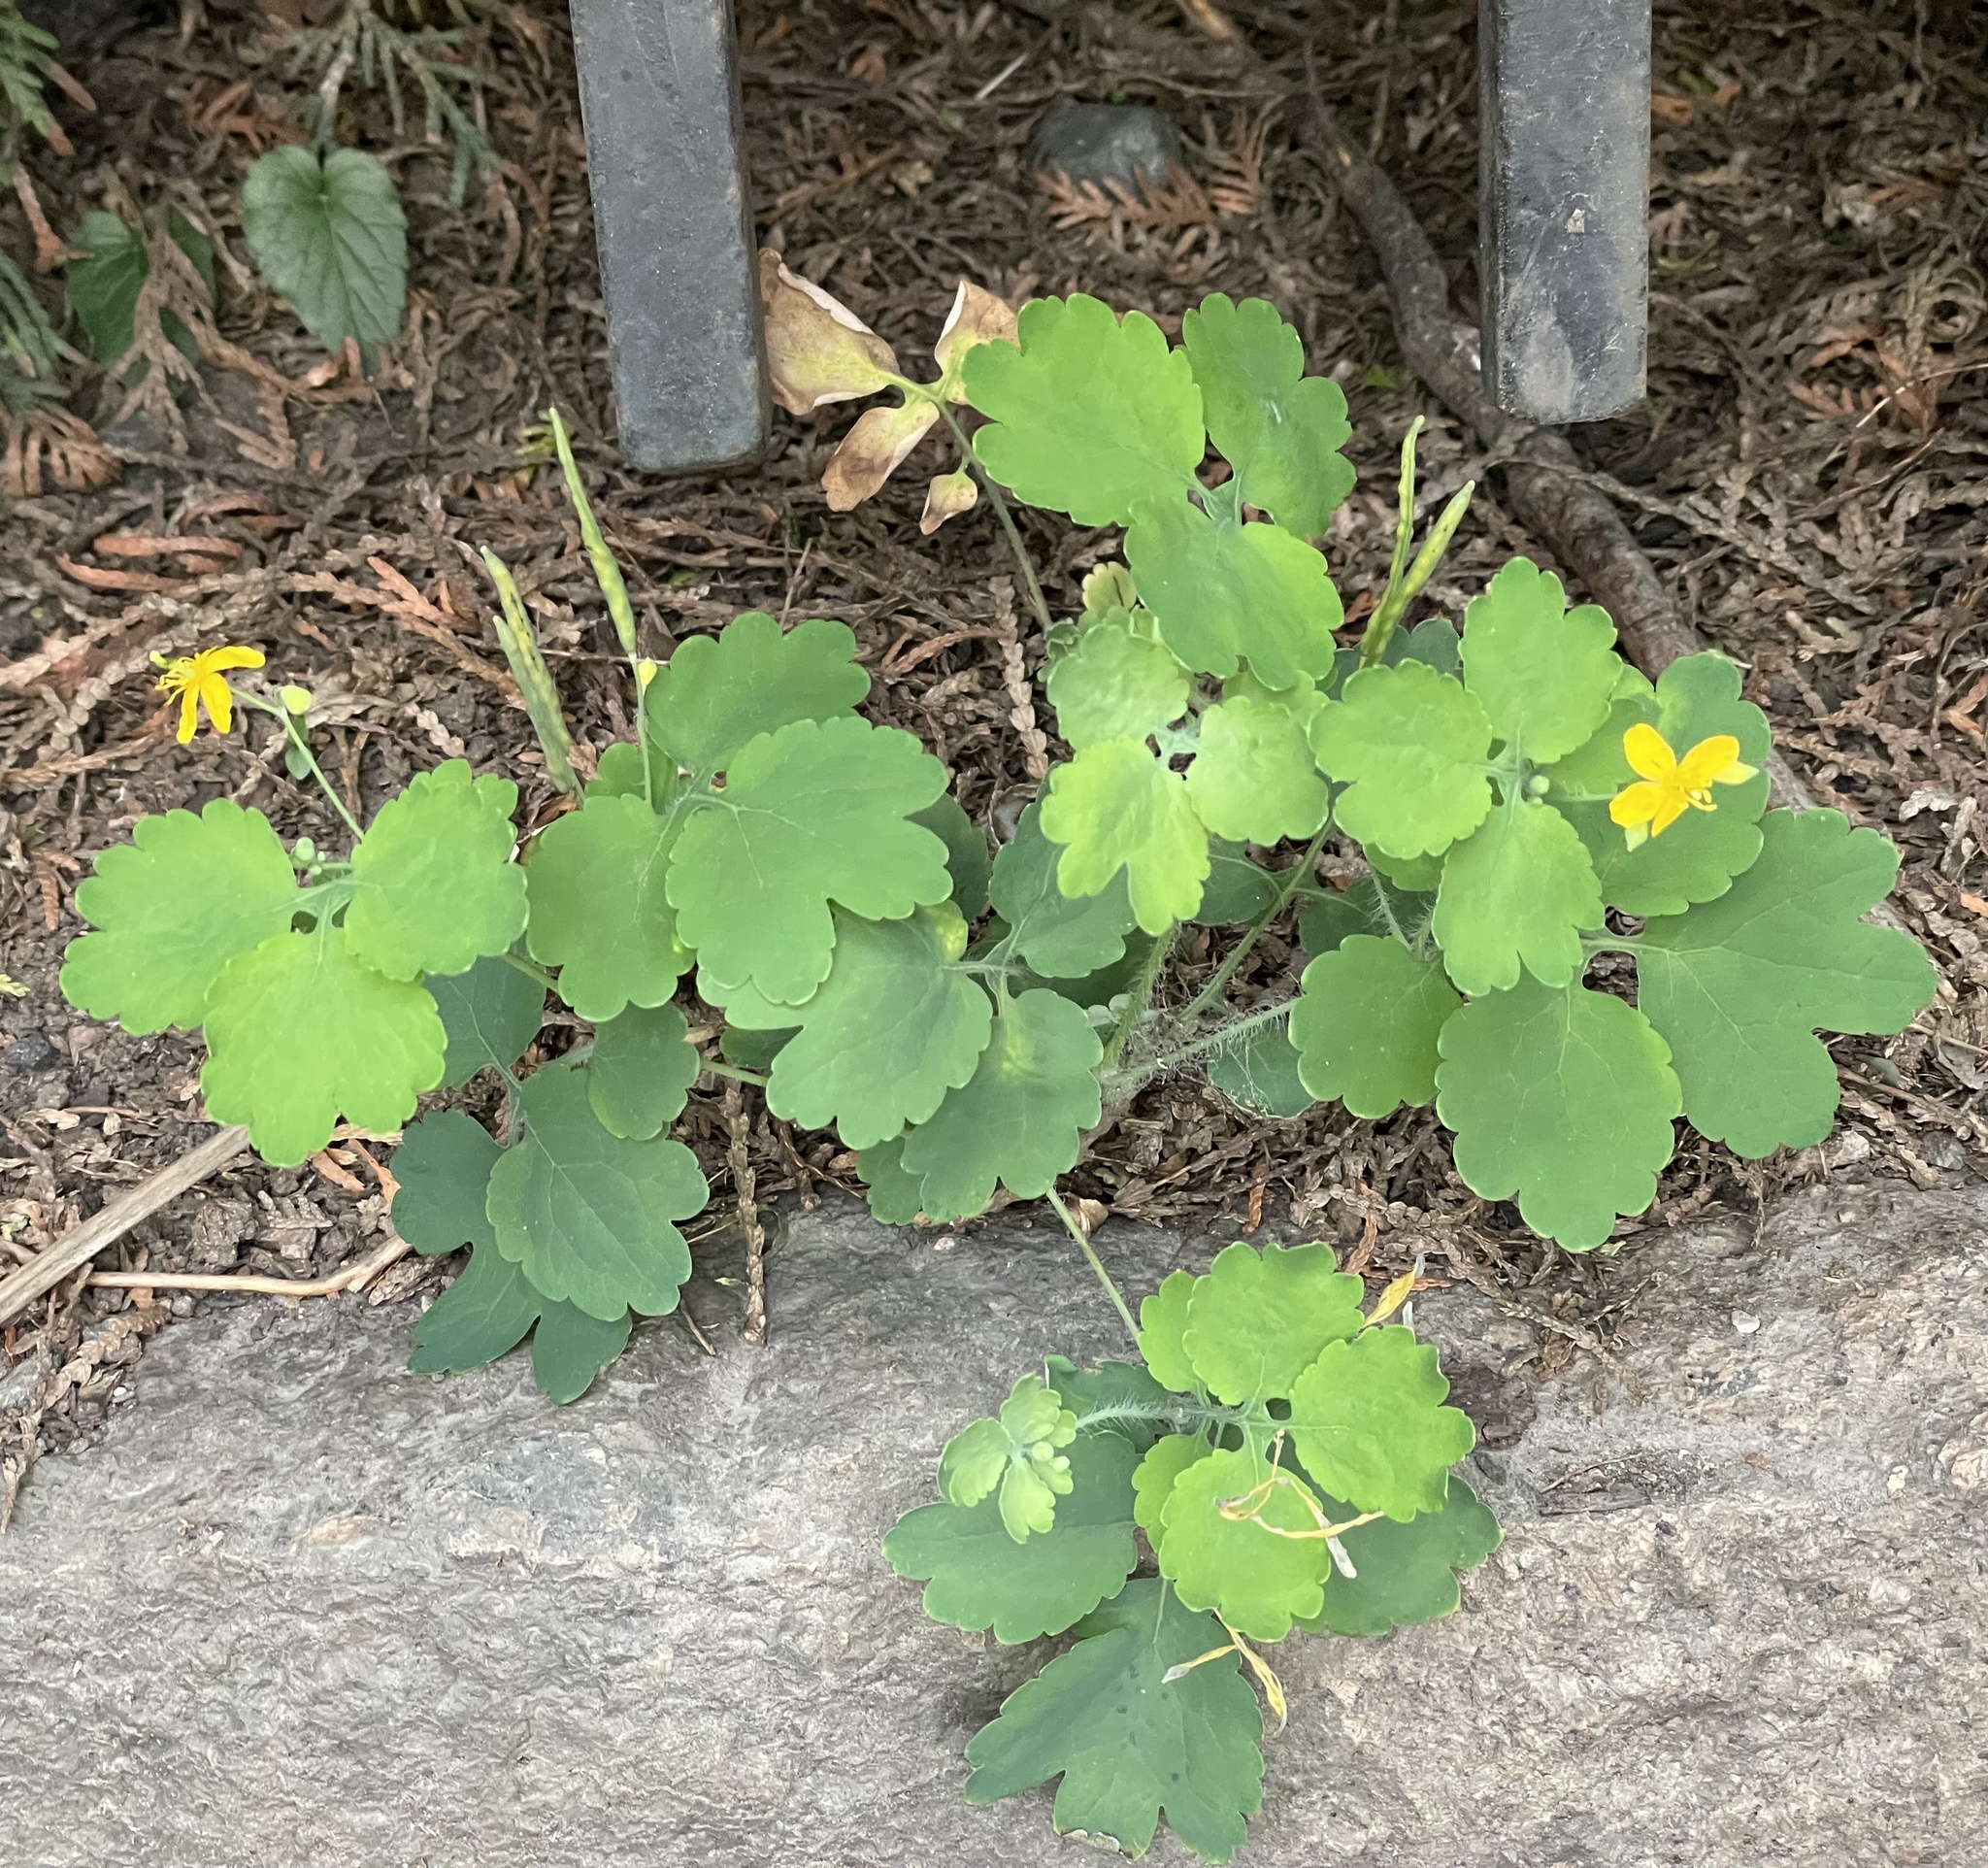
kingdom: Plantae
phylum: Tracheophyta
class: Magnoliopsida
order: Ranunculales
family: Papaveraceae
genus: Chelidonium
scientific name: Chelidonium majus
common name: Greater celandine
